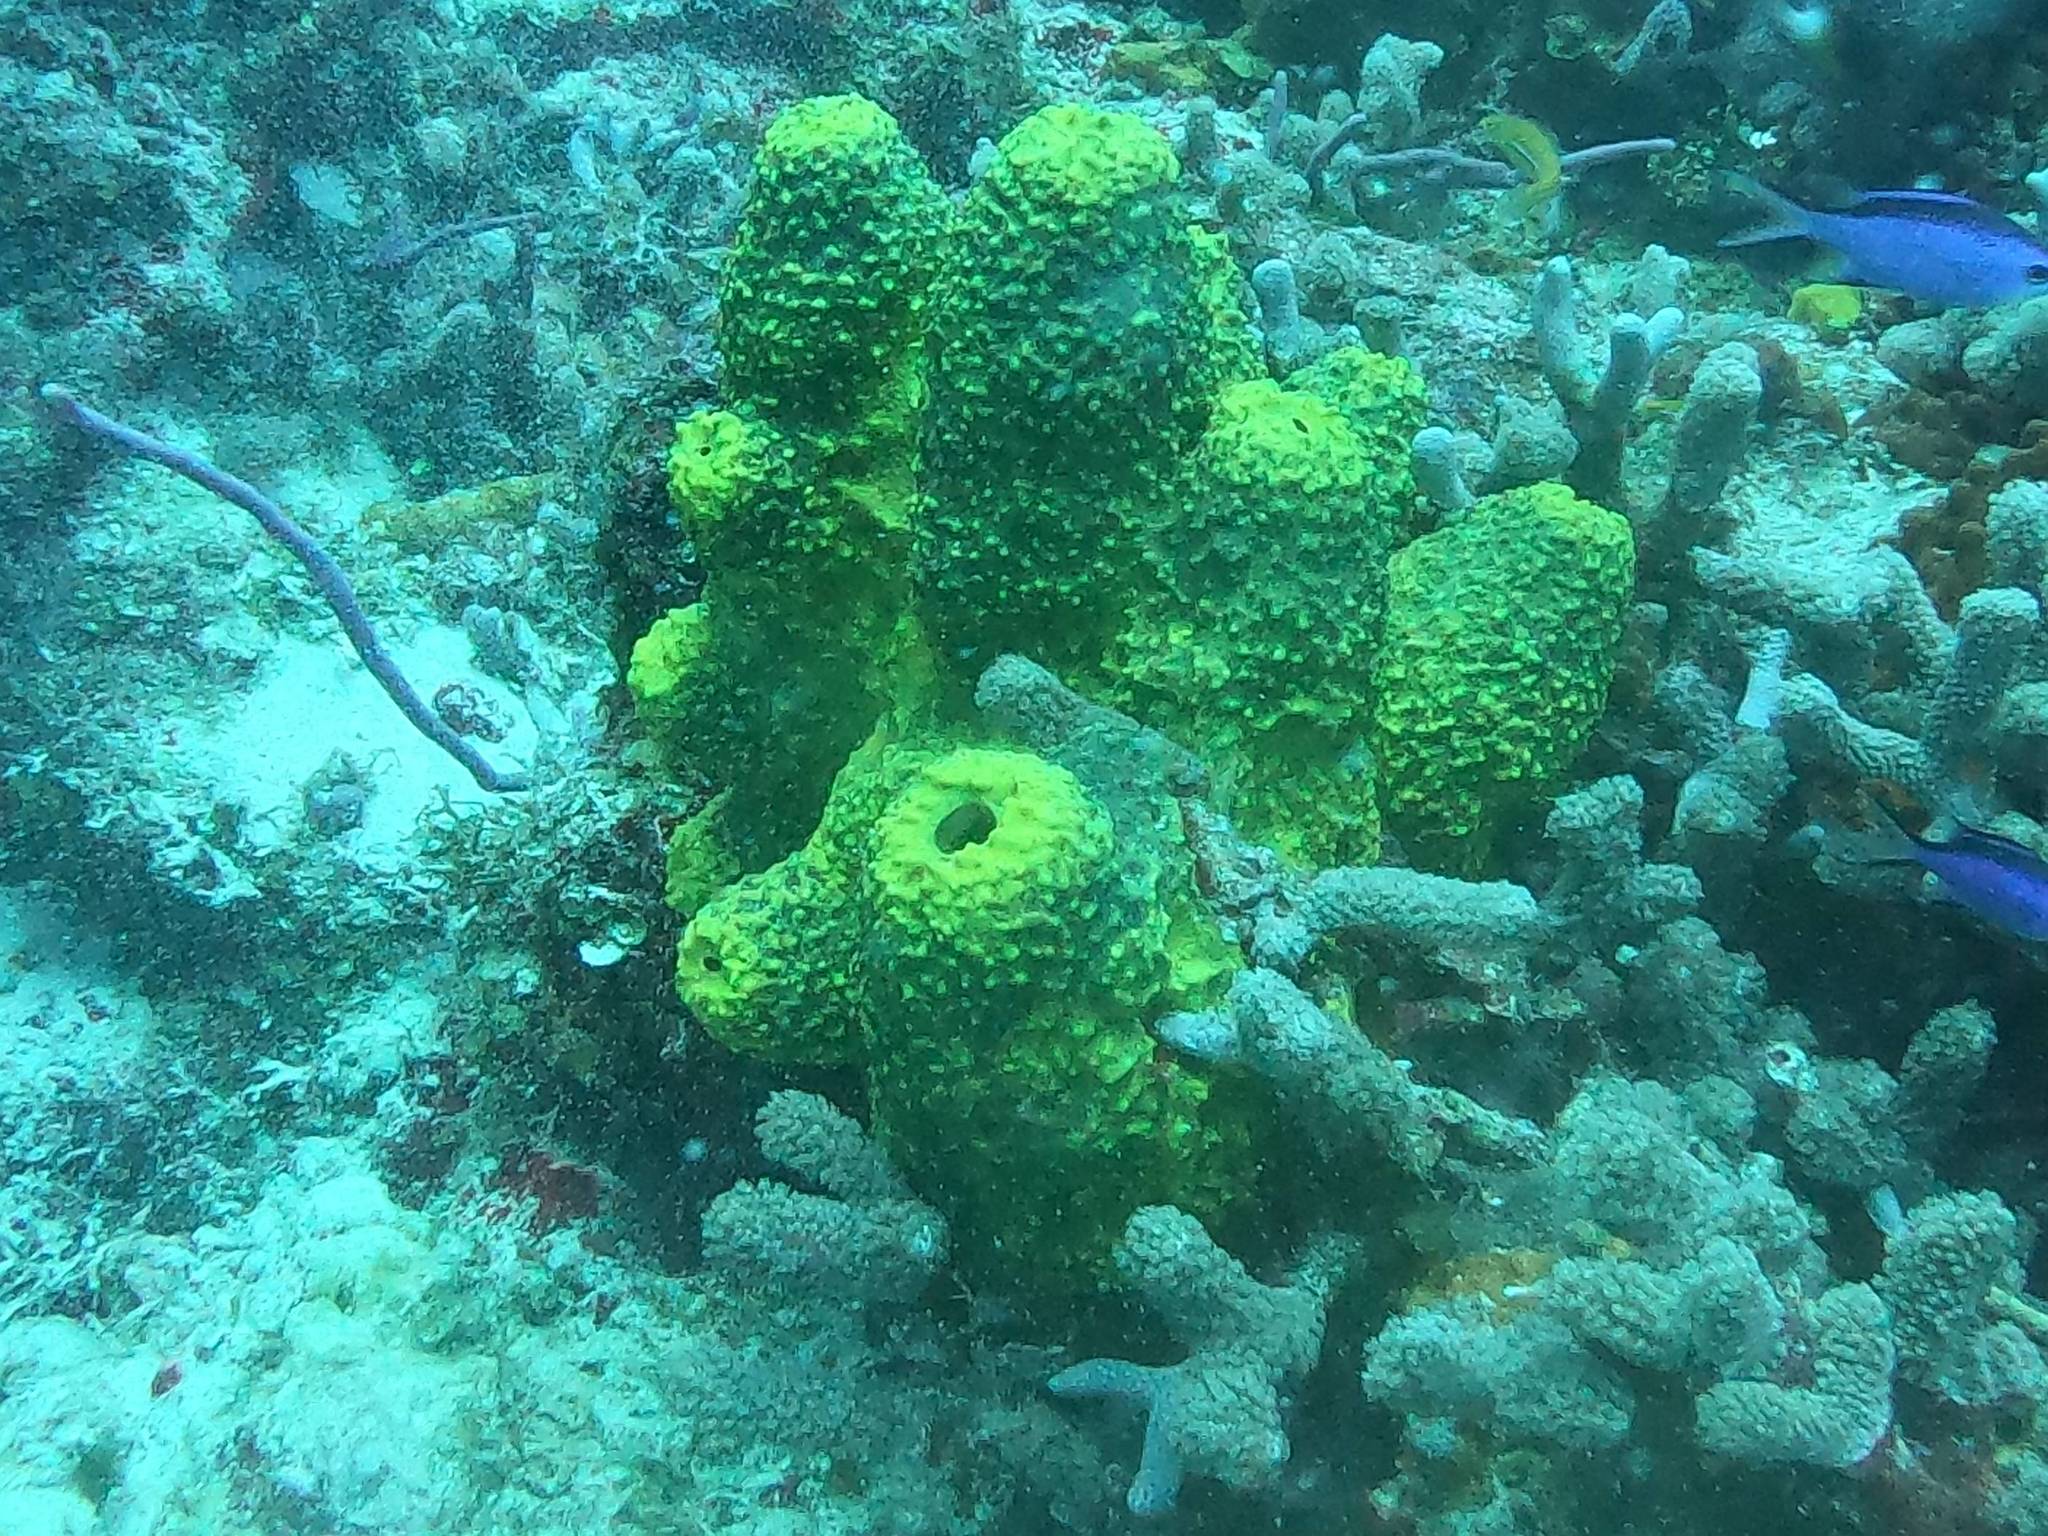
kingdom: Animalia
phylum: Porifera
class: Demospongiae
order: Verongiida
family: Aplysinidae
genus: Aiolochroia
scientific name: Aiolochroia crassa
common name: Branching tube sponge
